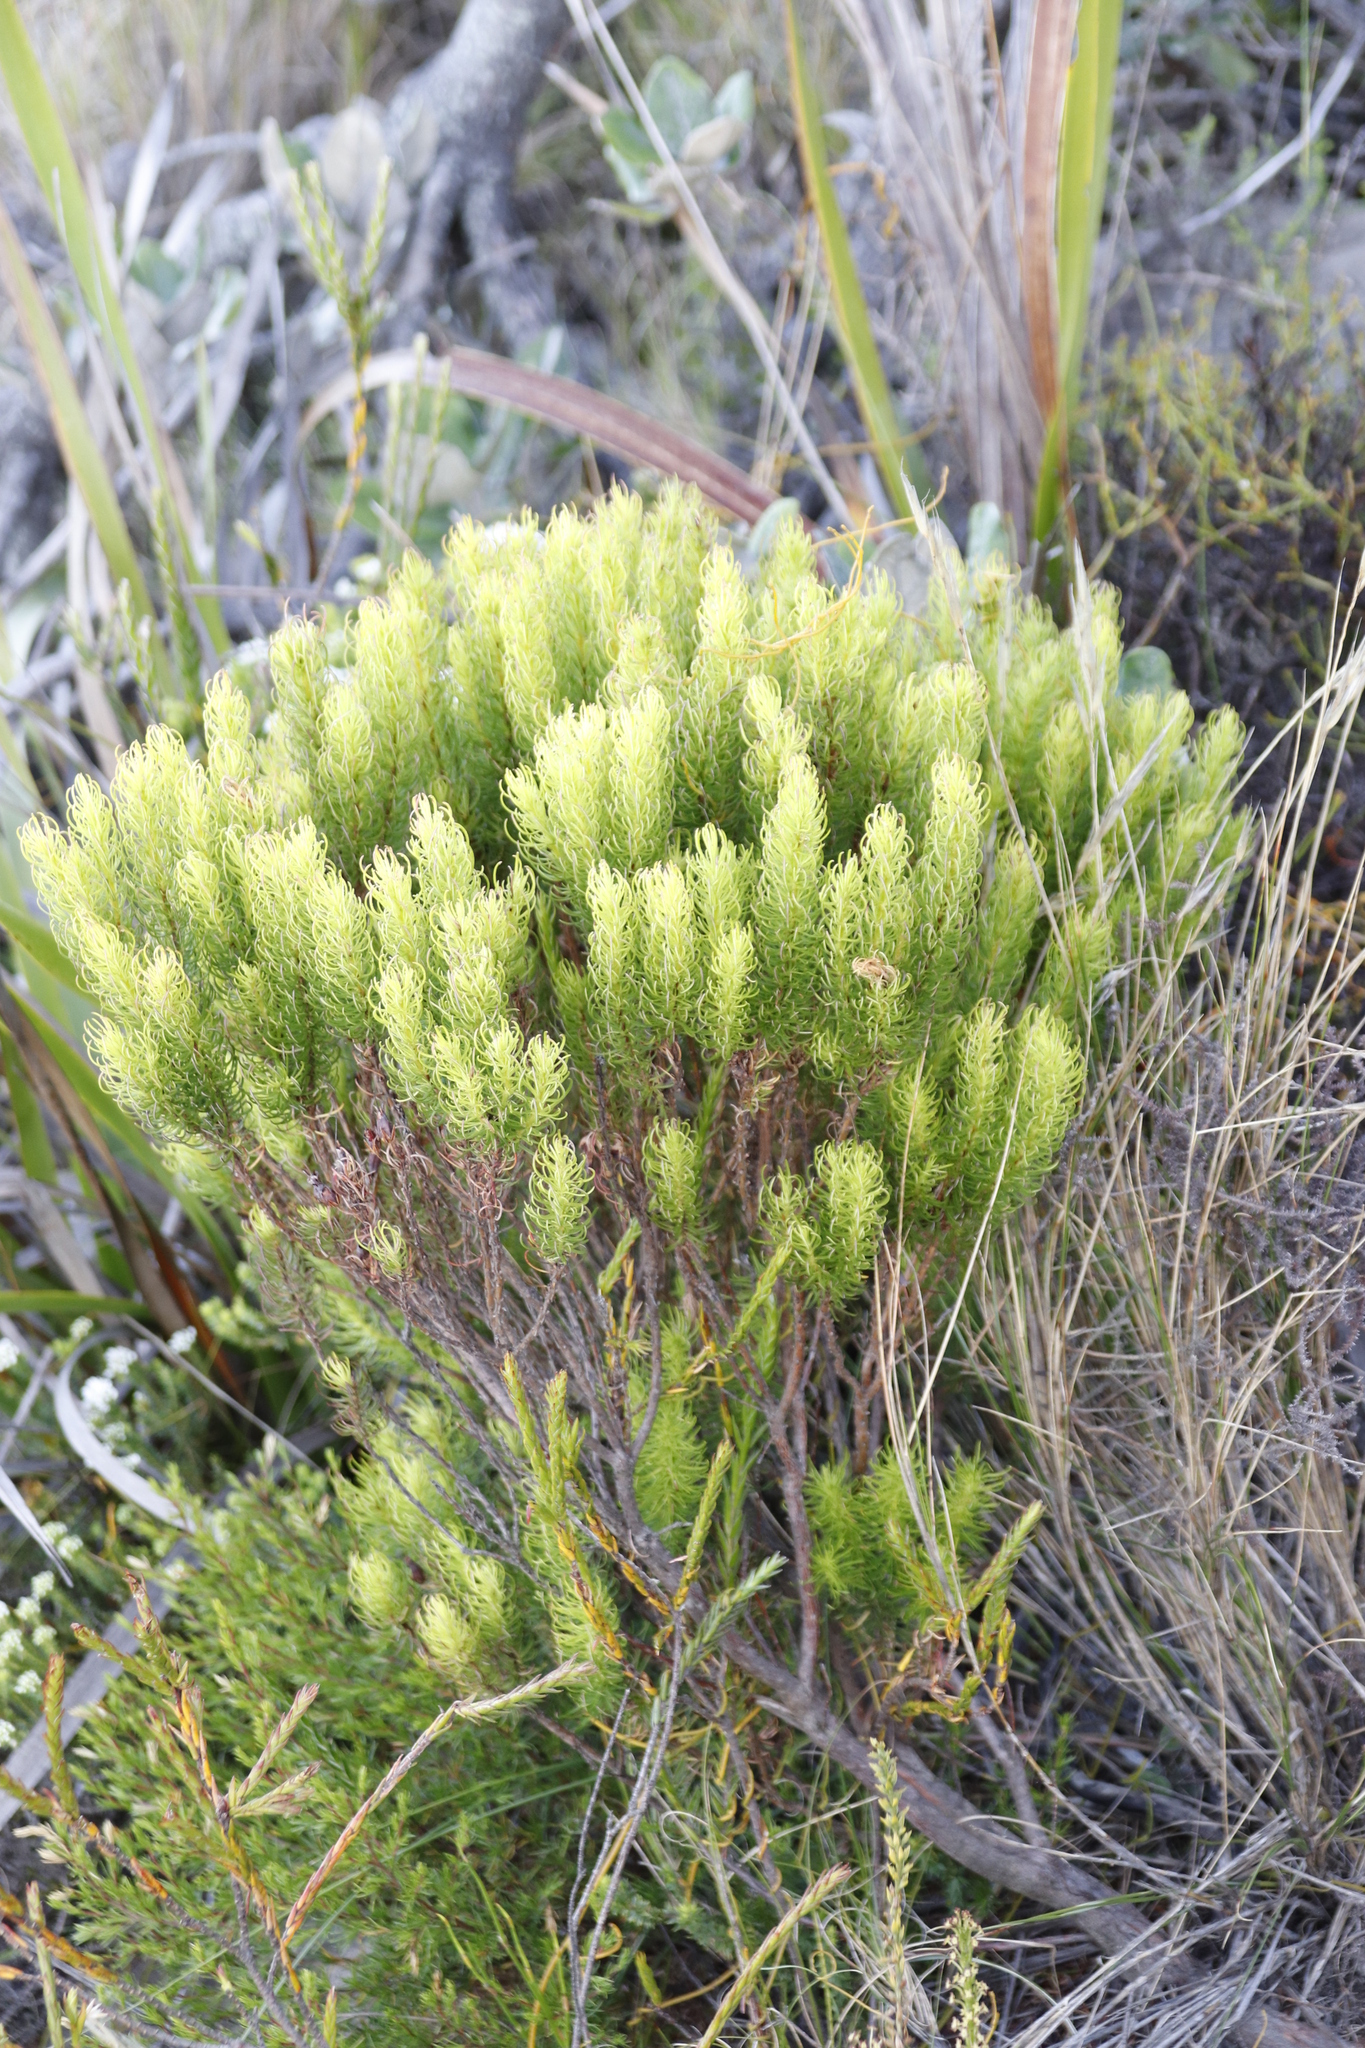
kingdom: Plantae
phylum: Tracheophyta
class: Magnoliopsida
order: Ericales
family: Ericaceae
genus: Erica
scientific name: Erica plukenetii
